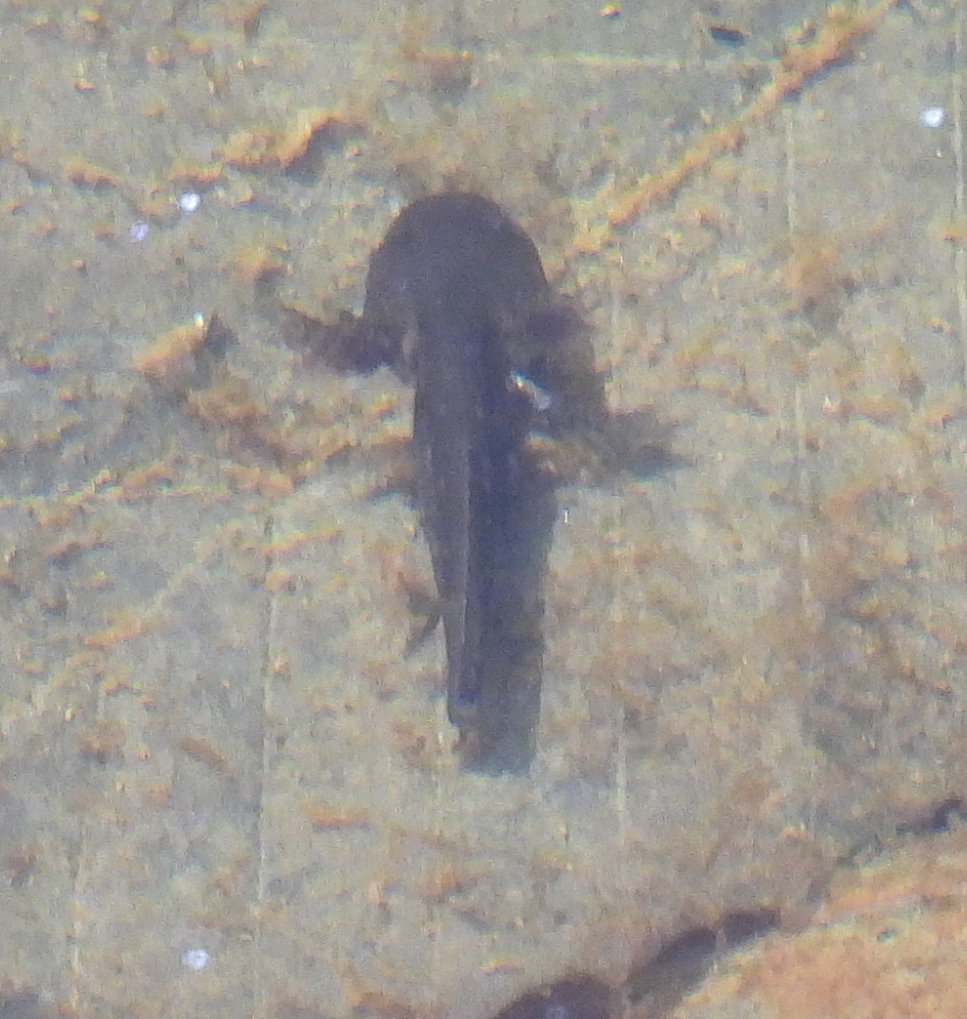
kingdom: Animalia
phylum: Chordata
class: Amphibia
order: Caudata
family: Ambystomatidae
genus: Ambystoma
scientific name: Ambystoma opacum
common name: Marbled salamander
